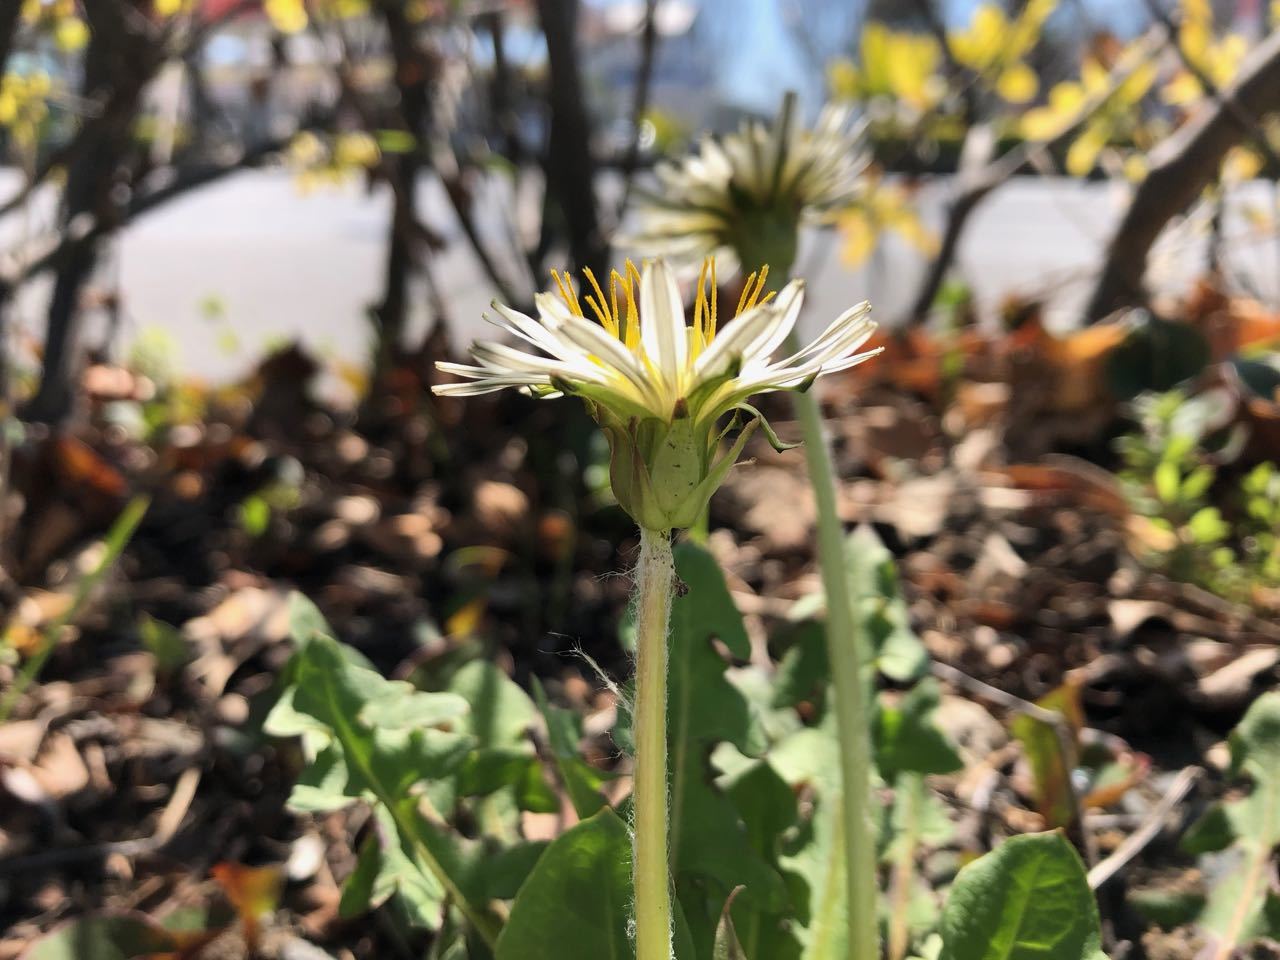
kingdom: Plantae
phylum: Tracheophyta
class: Magnoliopsida
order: Asterales
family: Asteraceae
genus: Taraxacum
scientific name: Taraxacum albidum
